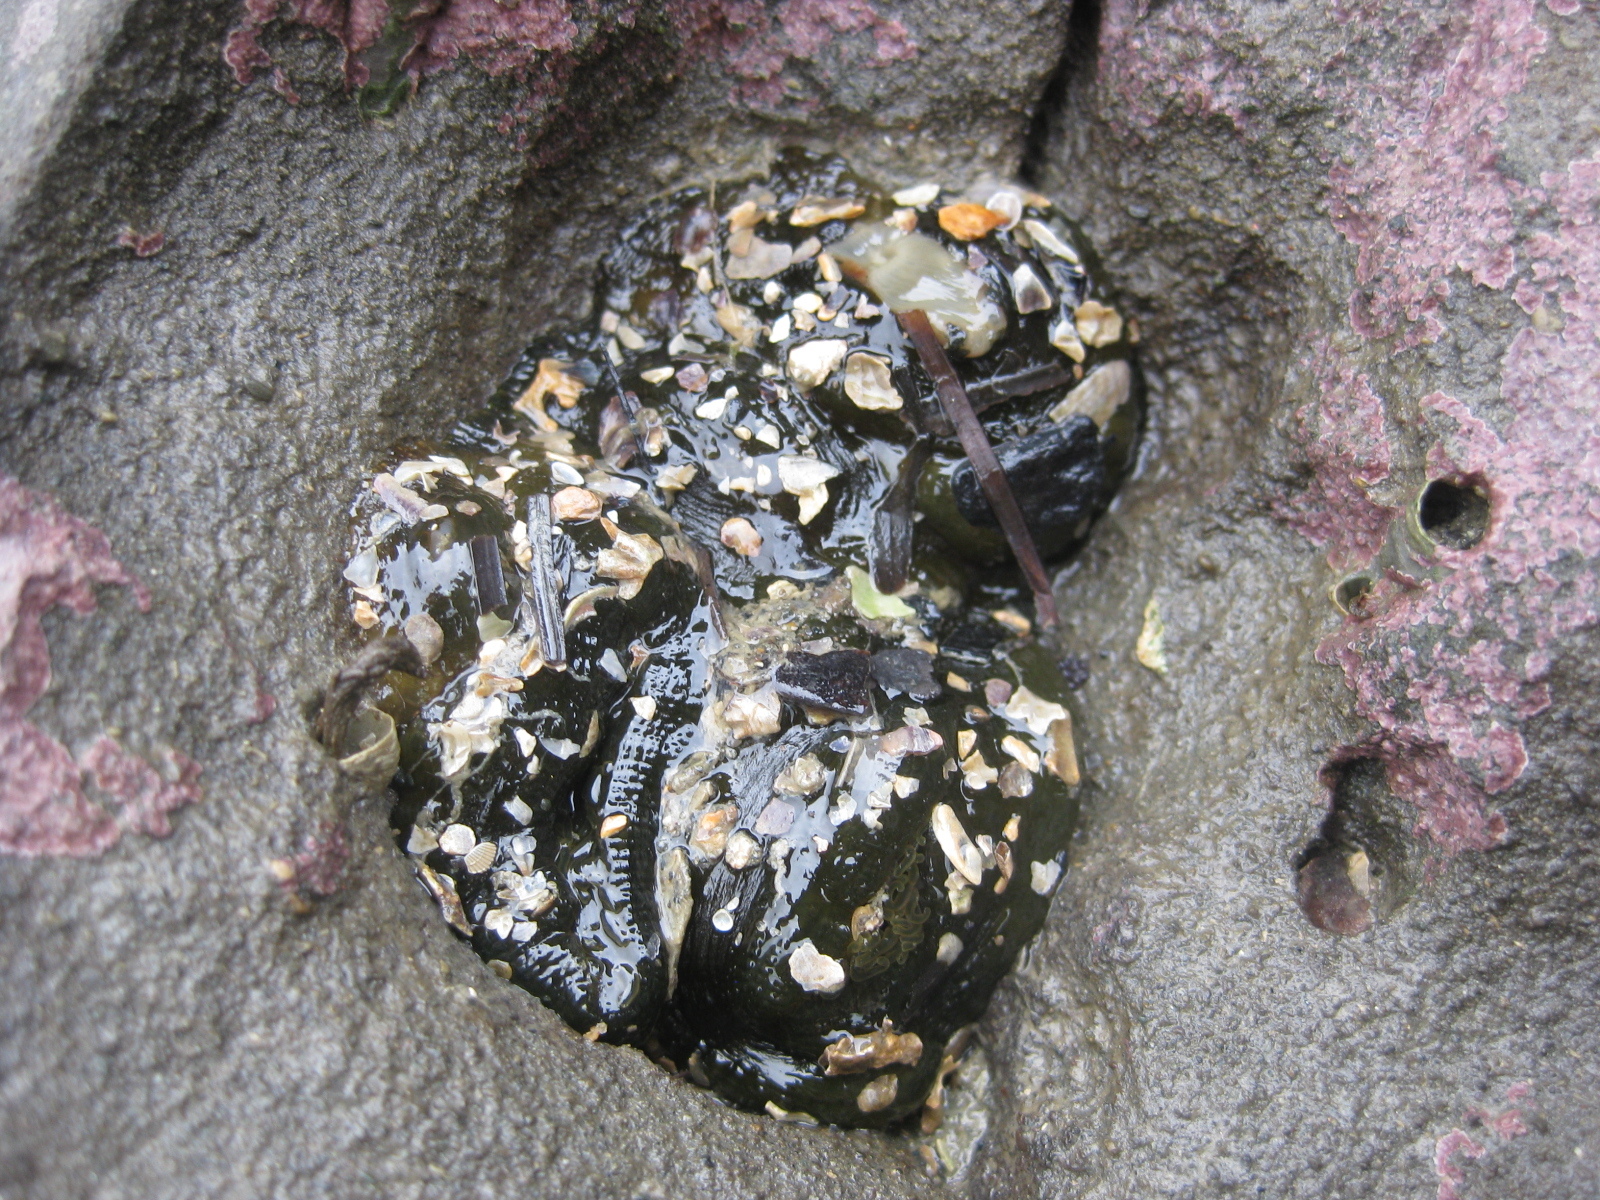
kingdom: Animalia
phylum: Cnidaria
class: Anthozoa
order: Actiniaria
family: Actiniidae
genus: Isactinia
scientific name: Isactinia olivacea
